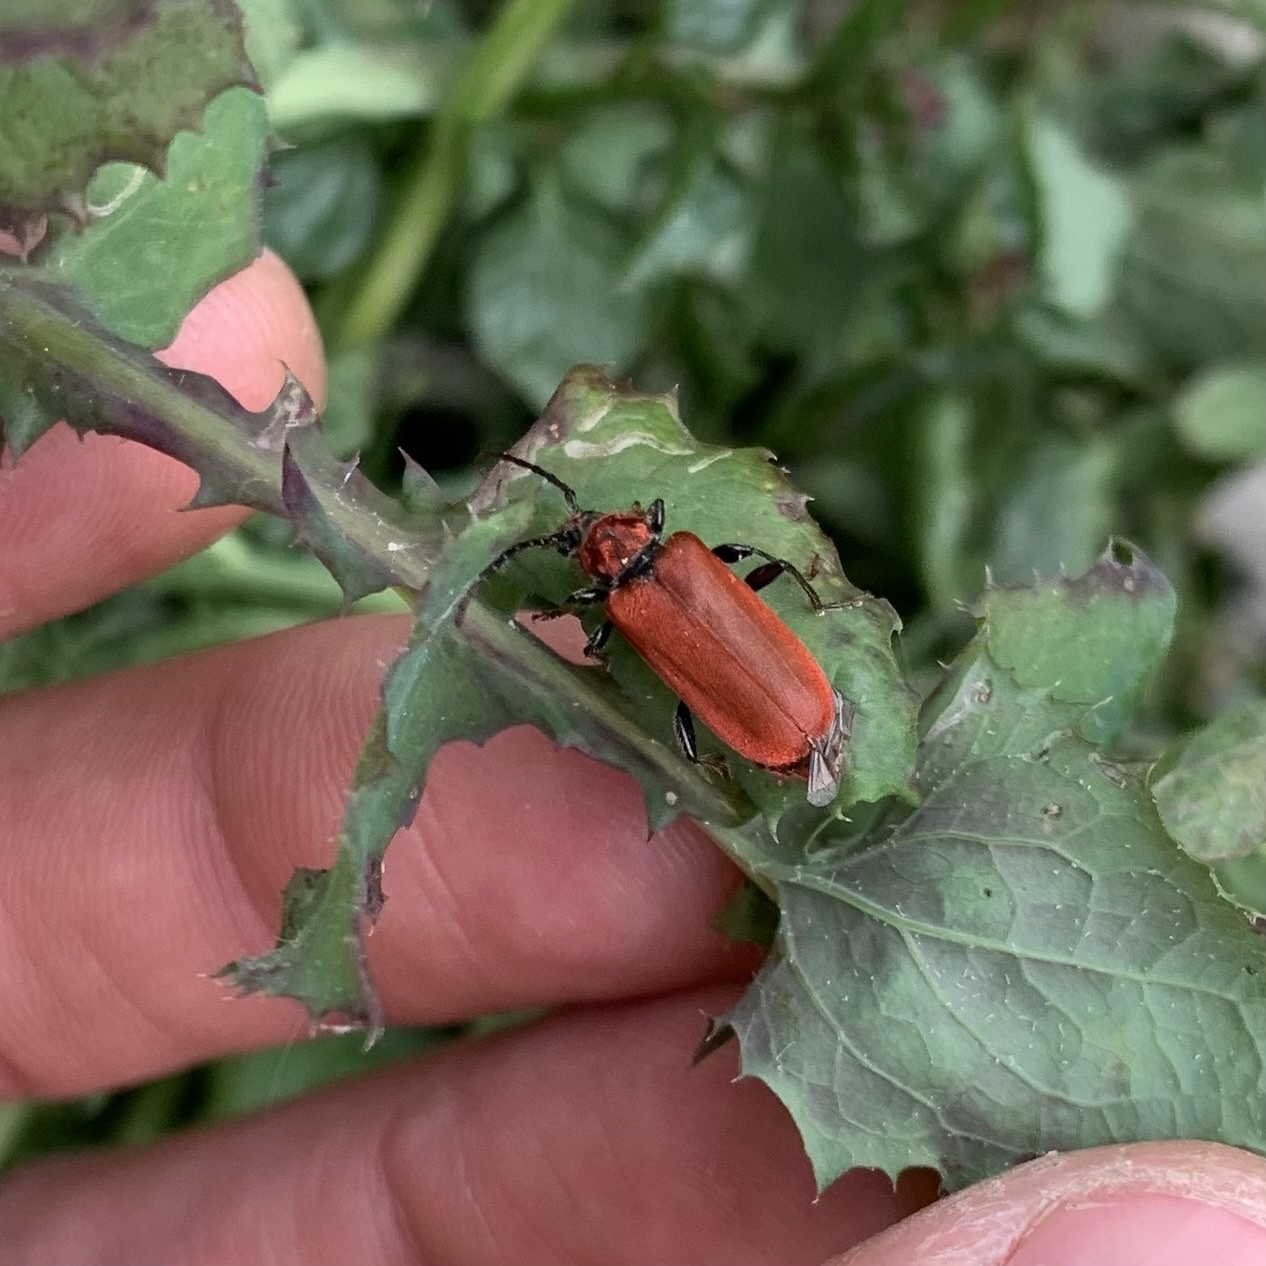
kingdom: Animalia
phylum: Arthropoda
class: Insecta
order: Coleoptera
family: Pyrochroidae
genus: Pyrochroa
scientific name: Pyrochroa coccinea
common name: Black-headed cardinal beetle
